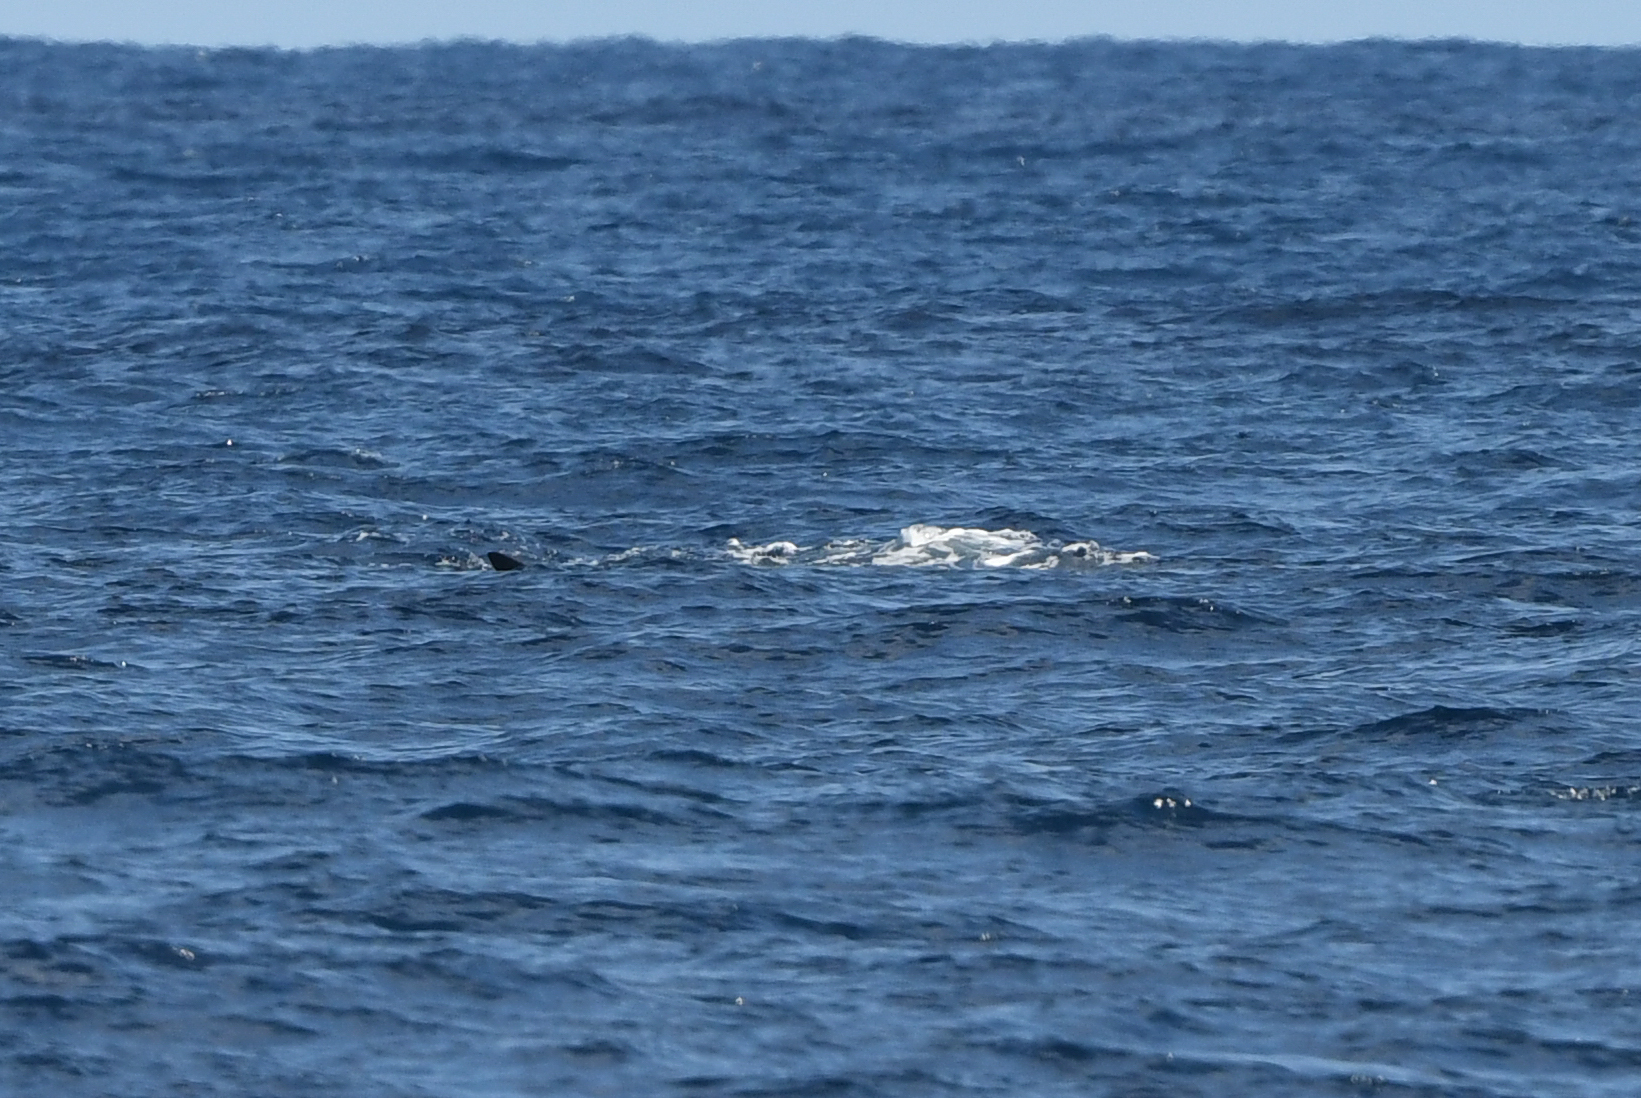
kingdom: Animalia
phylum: Chordata
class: Mammalia
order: Cetacea
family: Balaenopteridae
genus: Balaenoptera
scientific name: Balaenoptera physalus
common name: Fin whale
